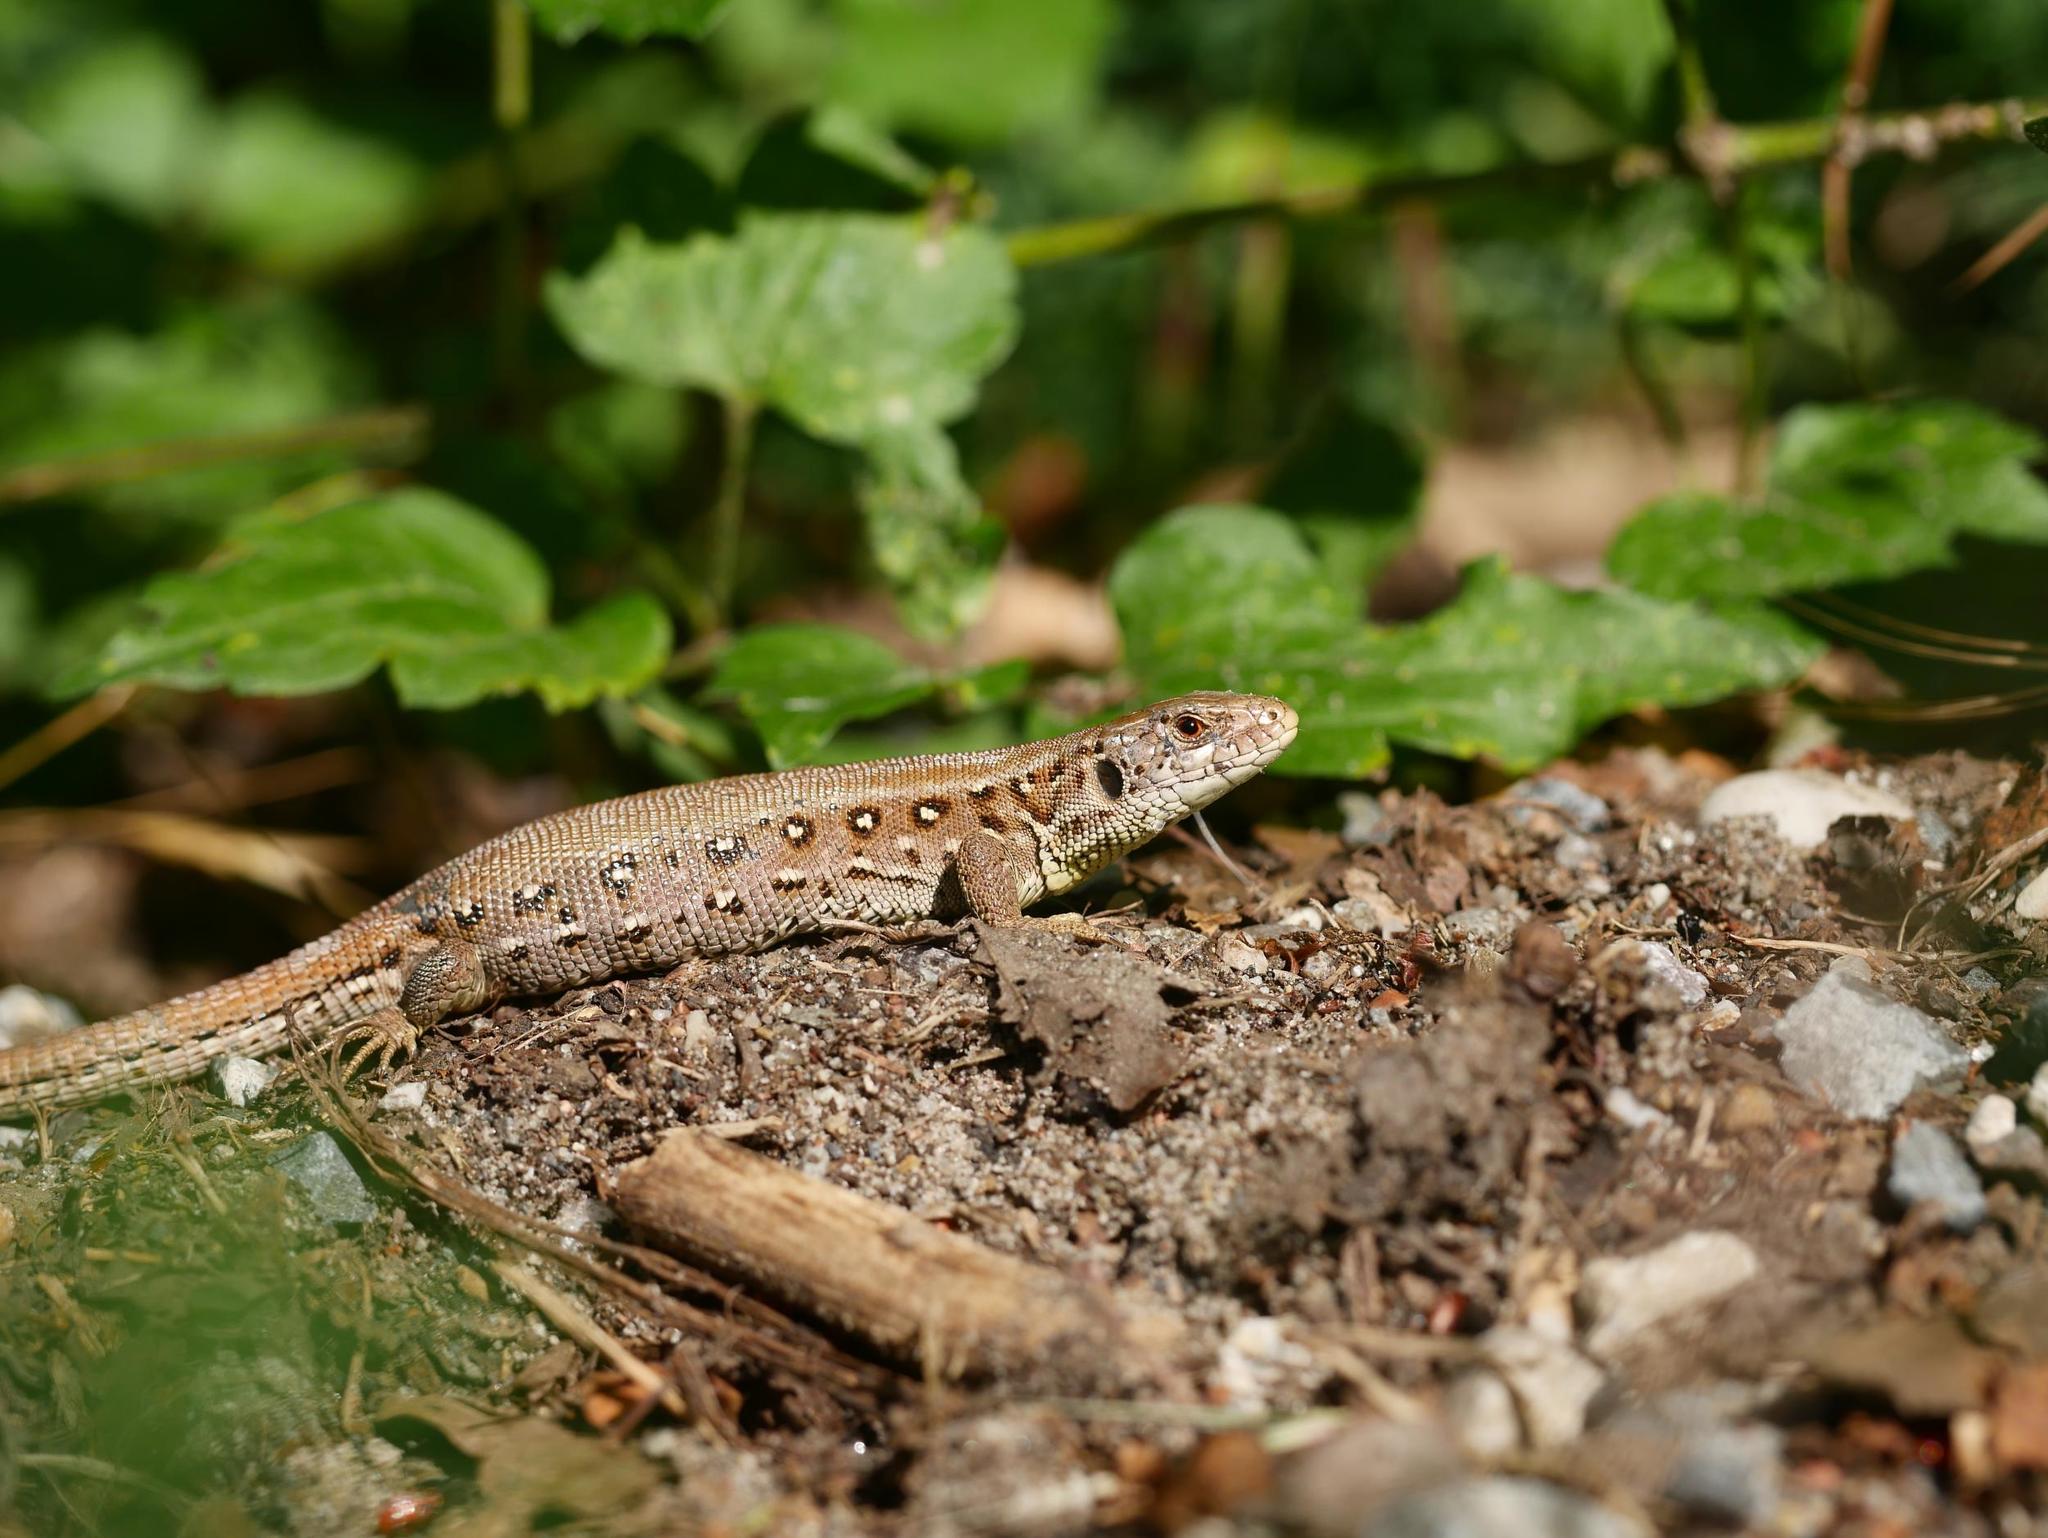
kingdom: Animalia
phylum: Chordata
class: Squamata
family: Lacertidae
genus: Lacerta
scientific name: Lacerta agilis
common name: Sand lizard
